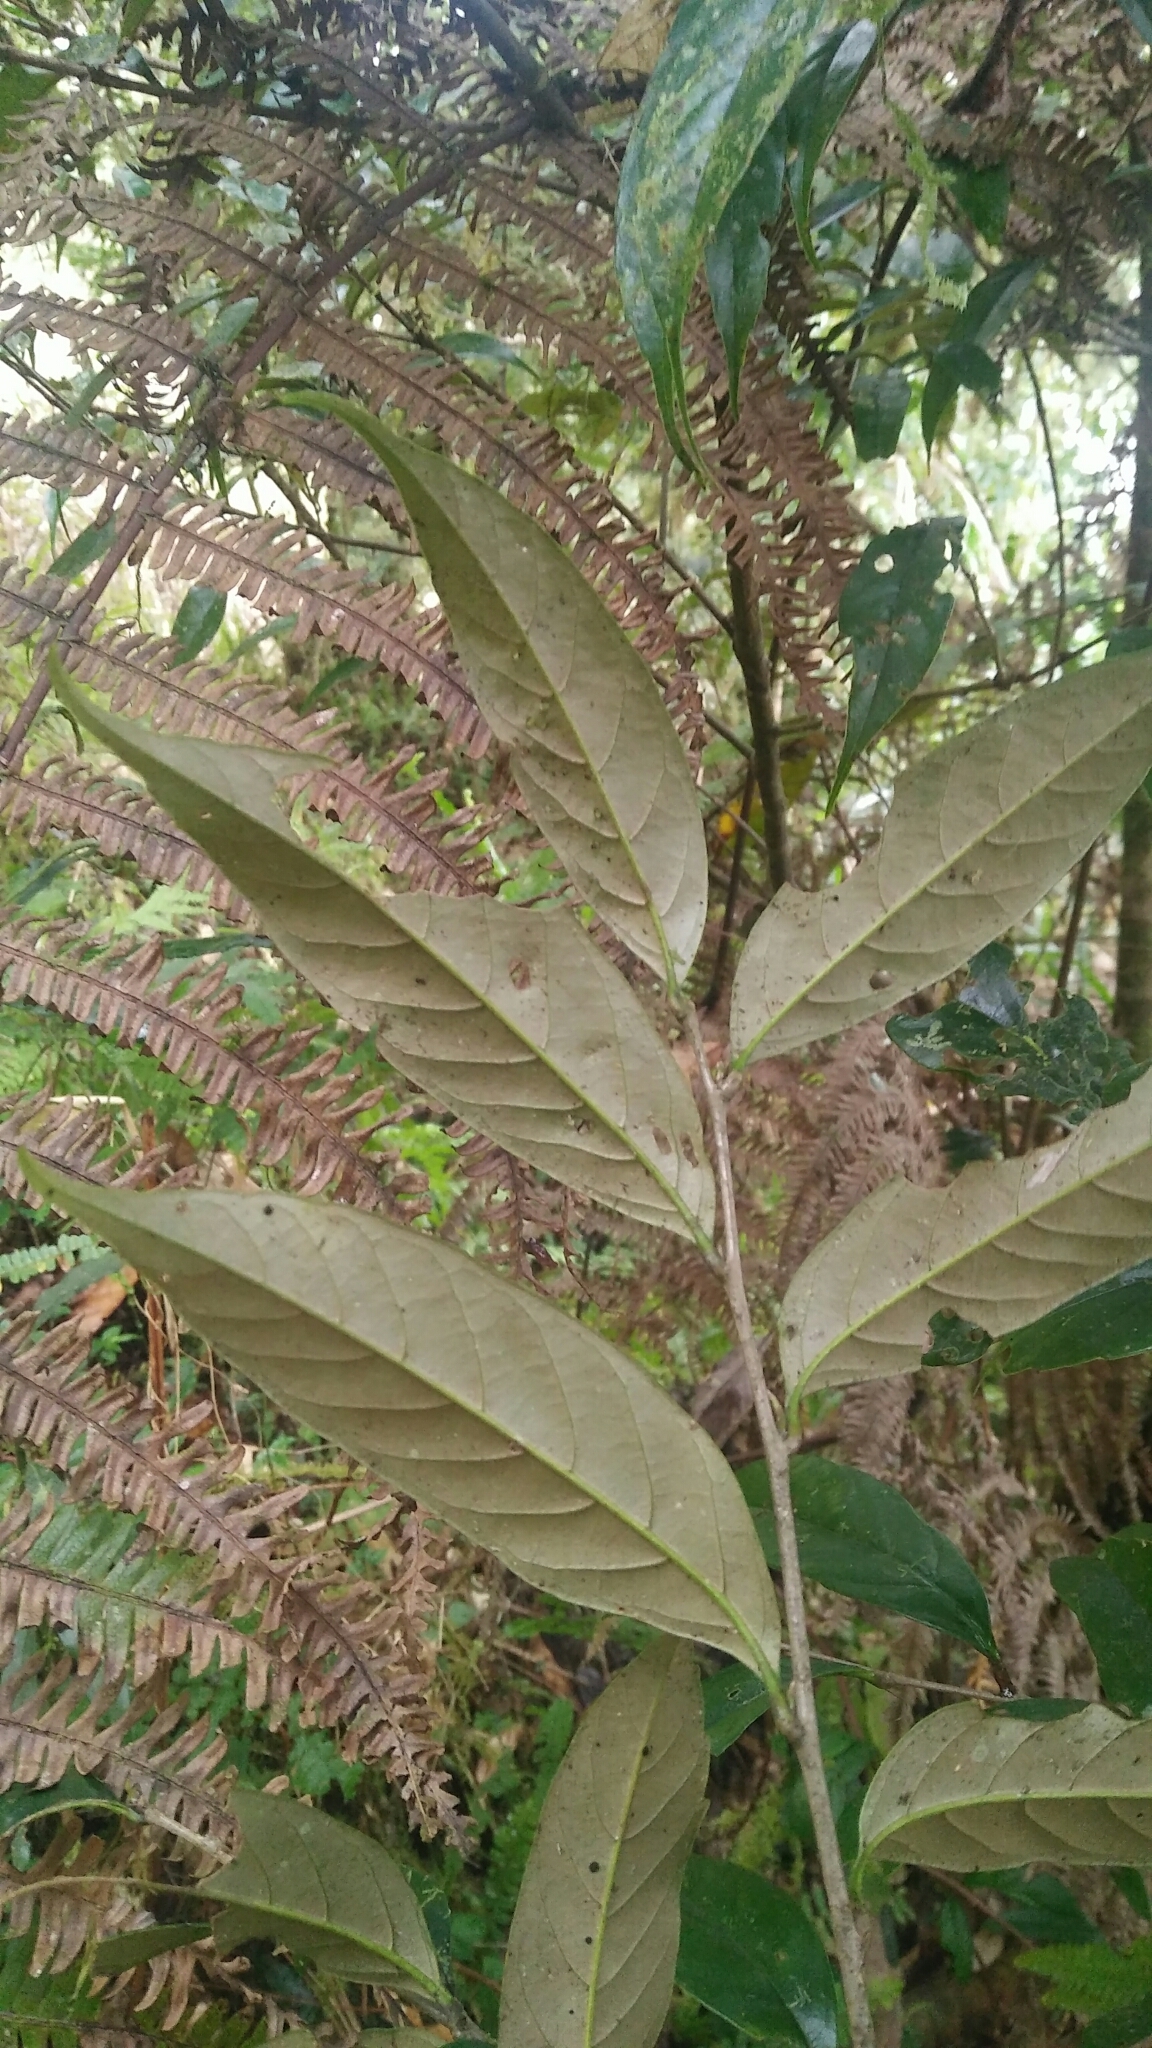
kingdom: Plantae
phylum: Tracheophyta
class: Magnoliopsida
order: Fagales
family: Fagaceae
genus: Castanopsis
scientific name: Castanopsis faberi
